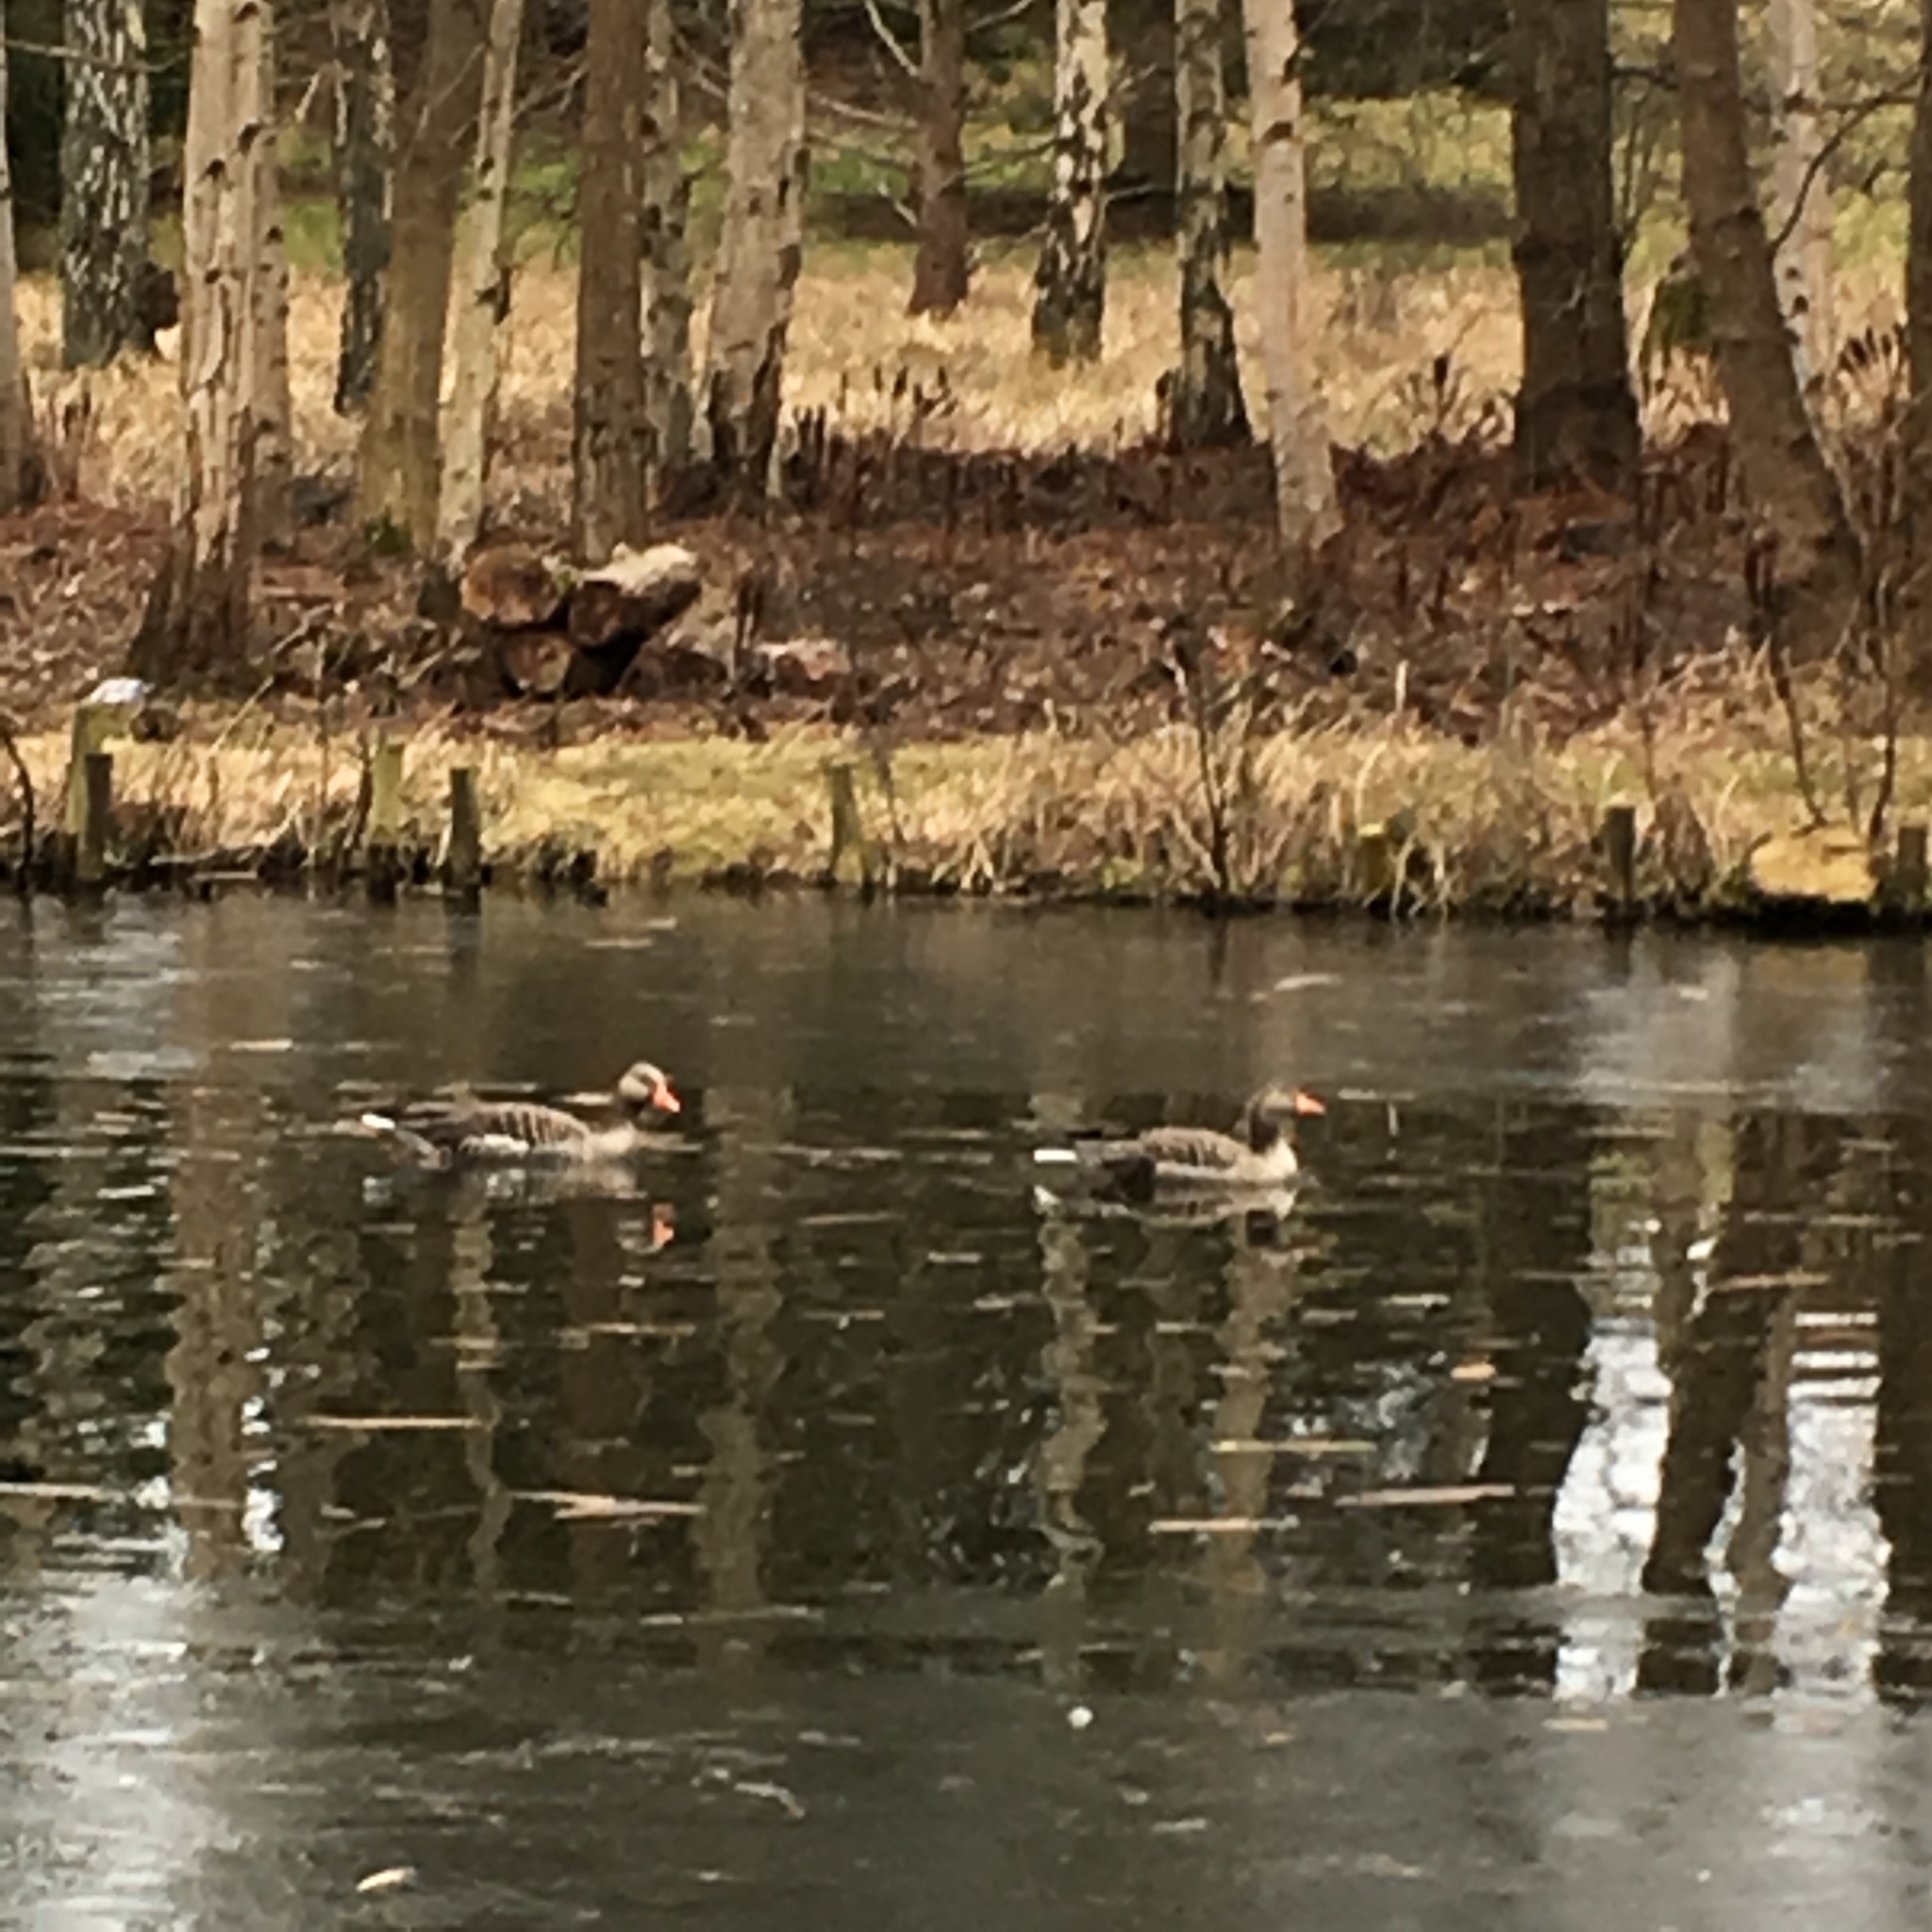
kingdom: Animalia
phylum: Chordata
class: Aves
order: Anseriformes
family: Anatidae
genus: Anser
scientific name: Anser anser
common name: Greylag goose
